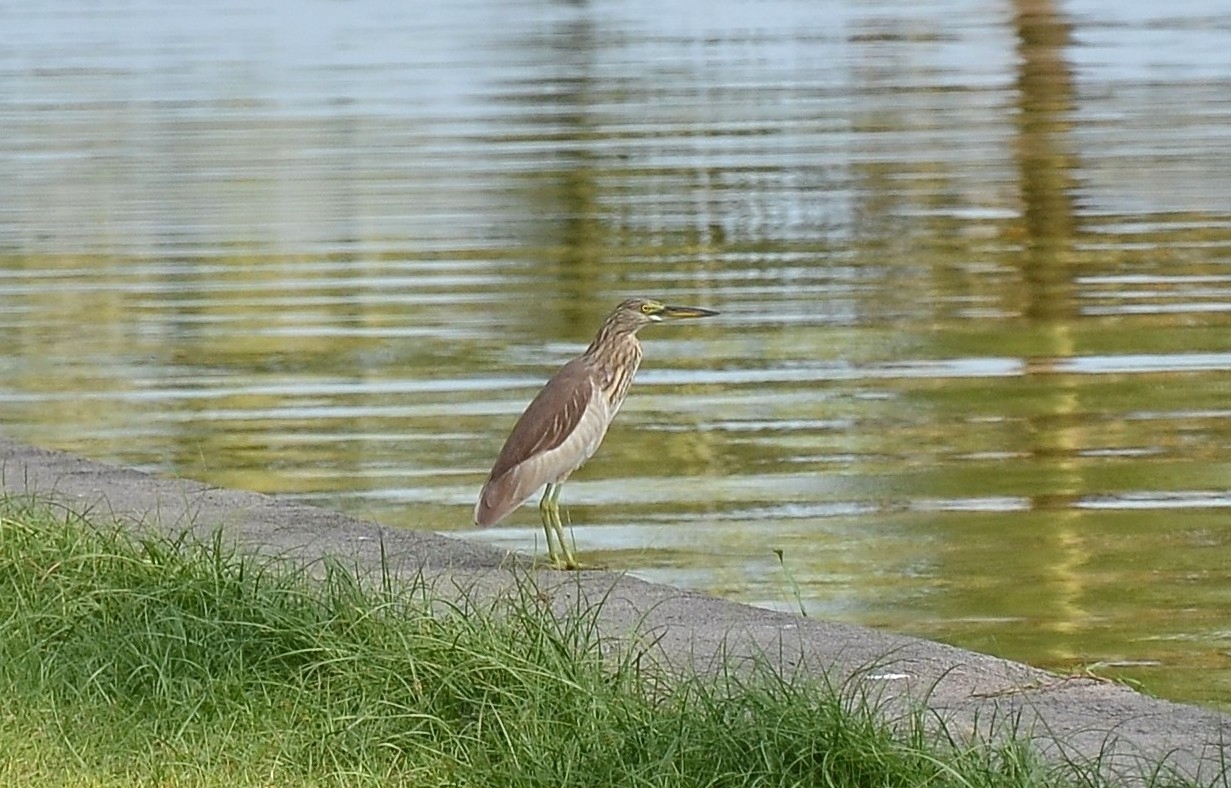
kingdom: Animalia
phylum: Chordata
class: Aves
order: Pelecaniformes
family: Ardeidae
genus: Ardeola
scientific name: Ardeola grayii
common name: Indian pond heron
